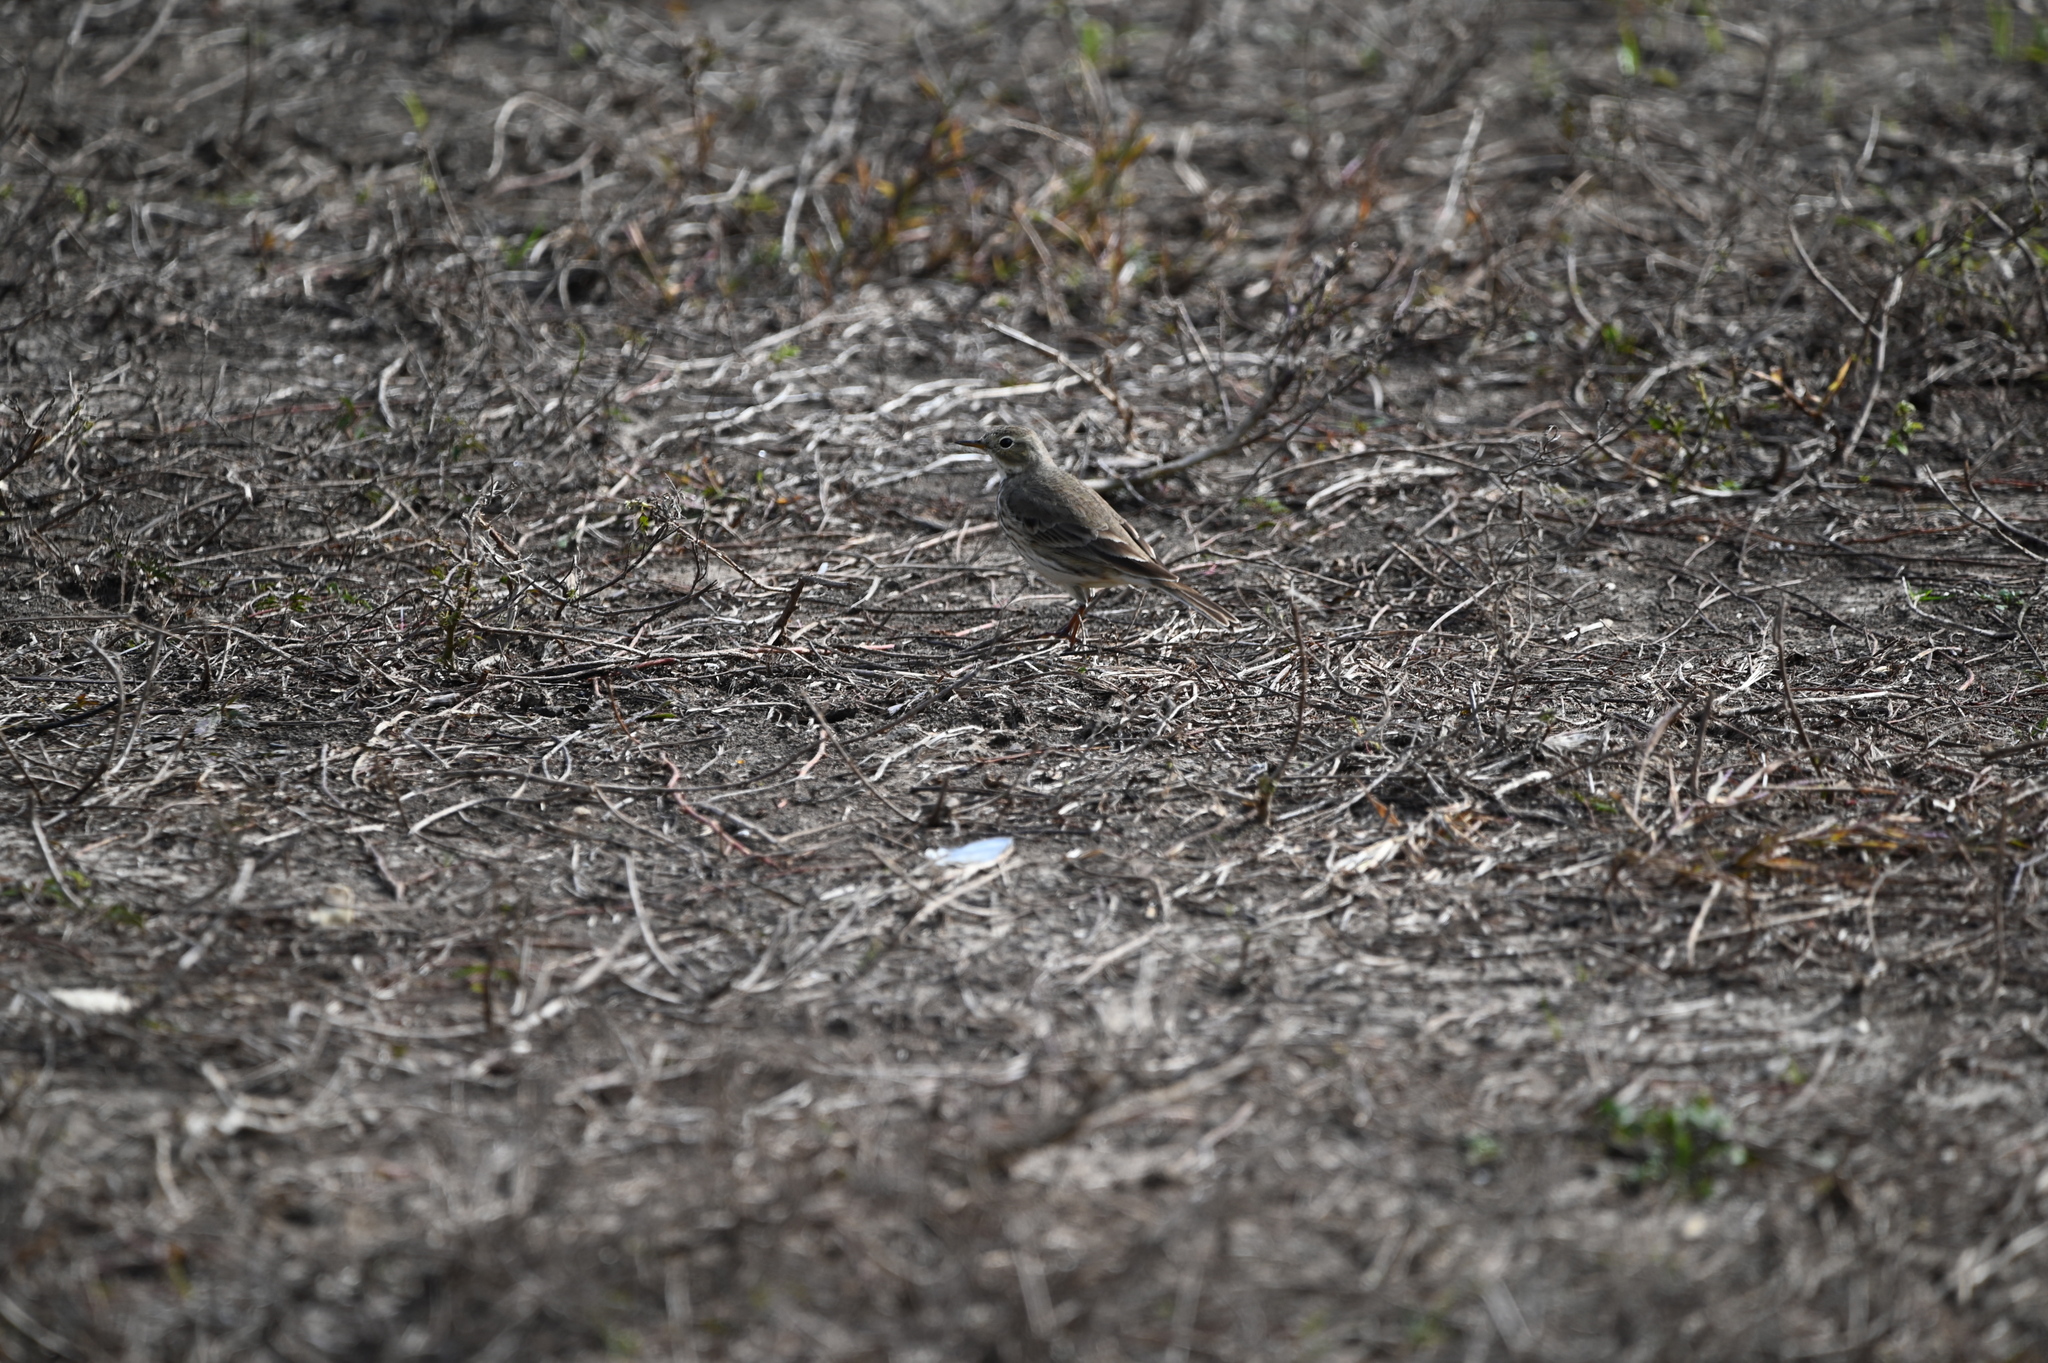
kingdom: Animalia
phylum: Chordata
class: Aves
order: Passeriformes
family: Motacillidae
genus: Anthus
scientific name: Anthus rubescens
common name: Buff-bellied pipit
